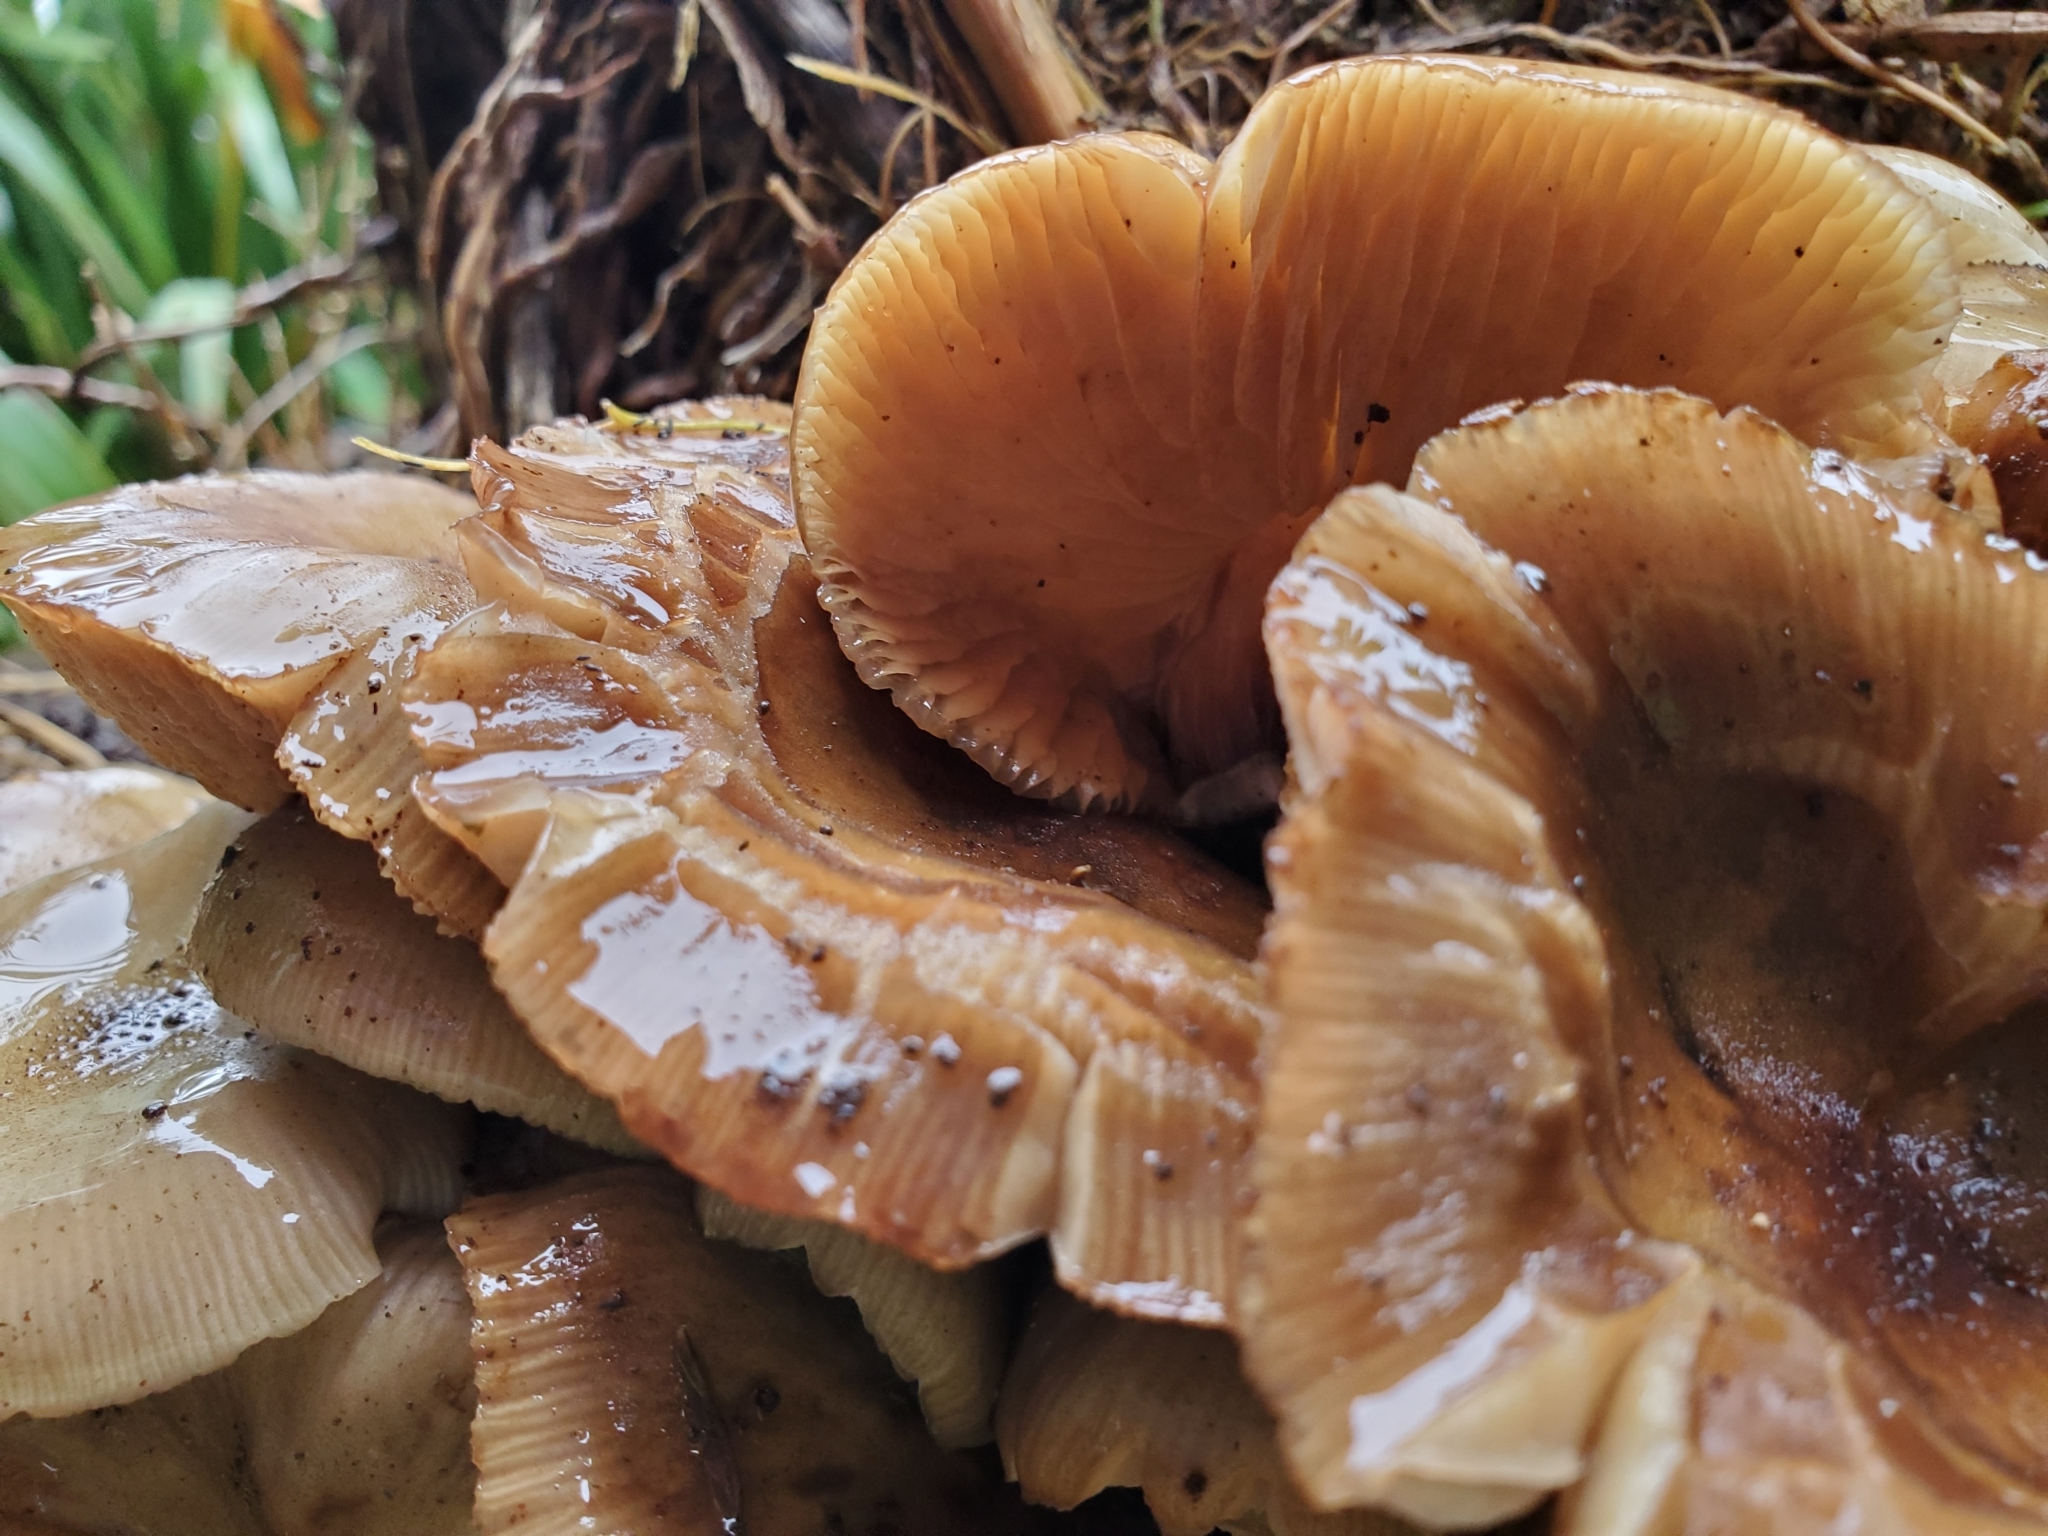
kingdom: Fungi
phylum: Basidiomycota
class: Agaricomycetes
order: Agaricales
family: Physalacriaceae
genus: Armillaria
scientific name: Armillaria novae-zelandiae
